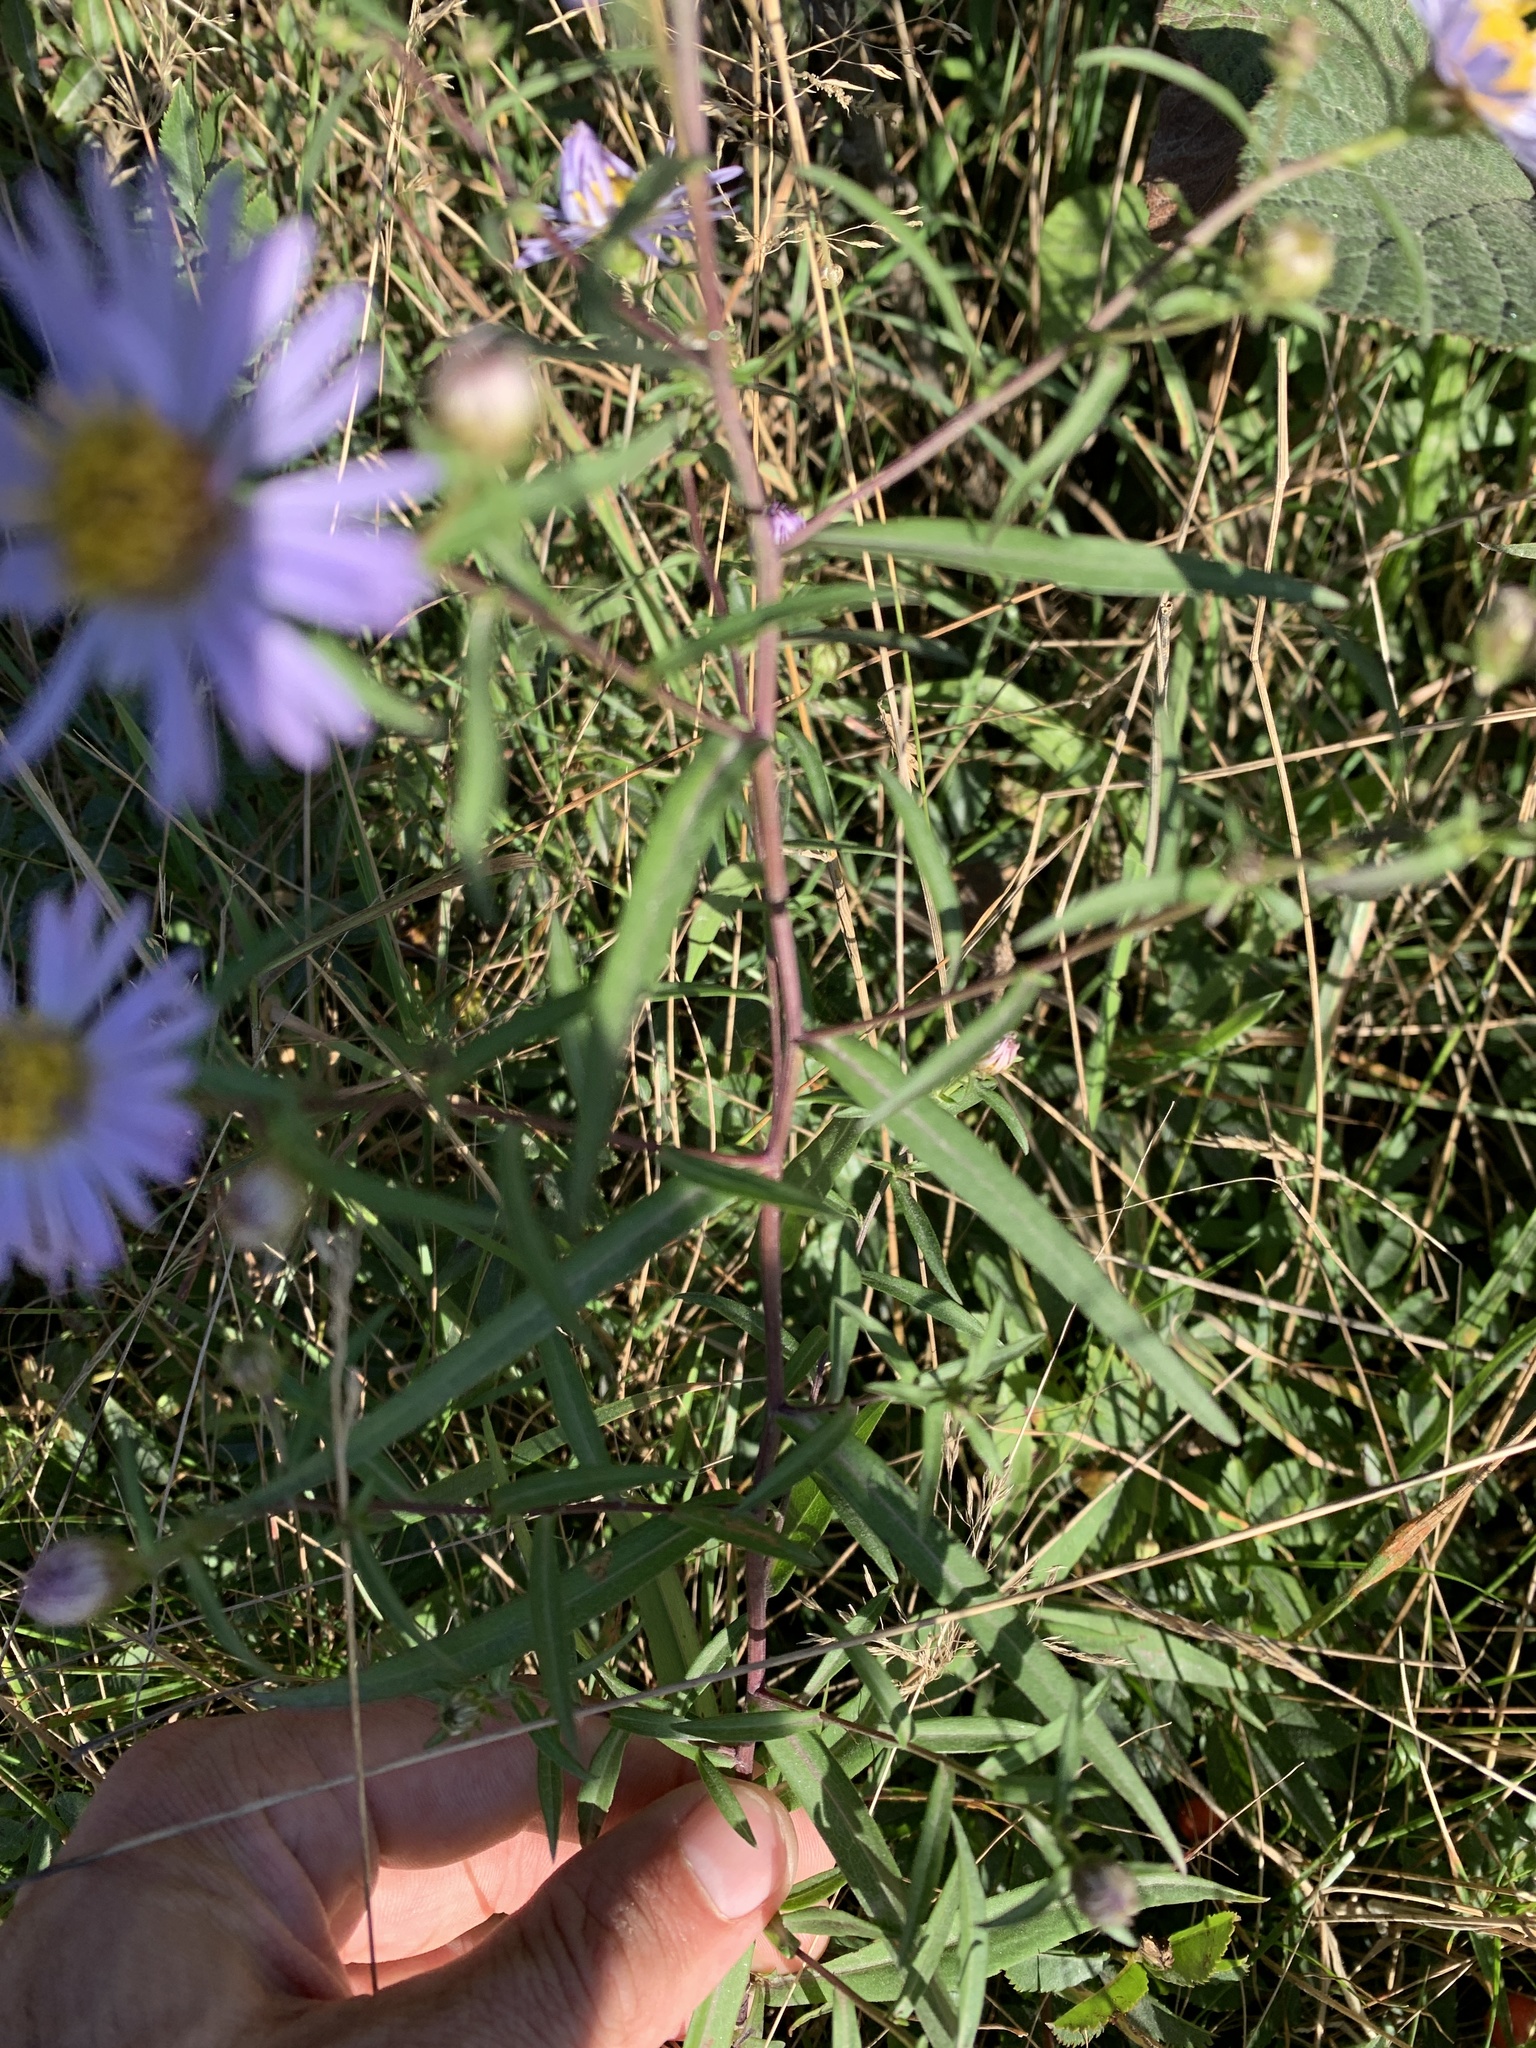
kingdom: Plantae
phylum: Tracheophyta
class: Magnoliopsida
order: Asterales
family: Asteraceae
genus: Symphyotrichum
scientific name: Symphyotrichum novi-belgii
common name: Michaelmas daisy
